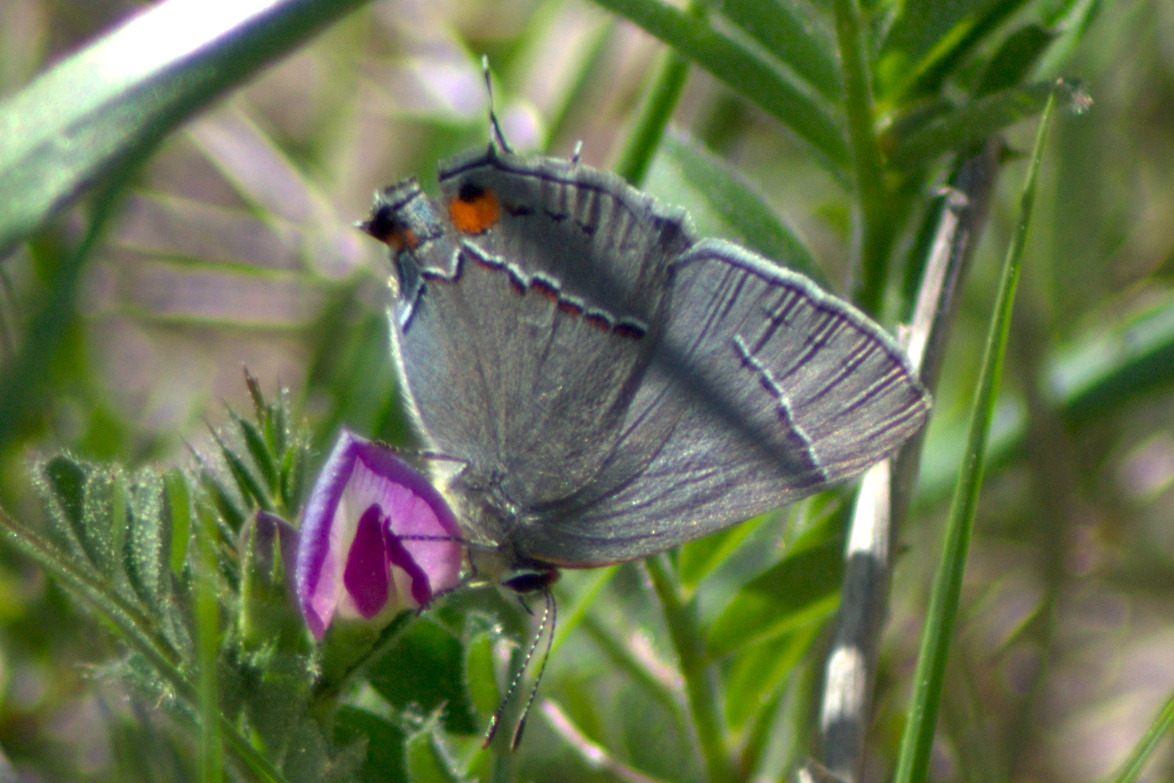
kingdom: Animalia
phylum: Arthropoda
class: Insecta
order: Lepidoptera
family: Lycaenidae
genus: Strymon
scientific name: Strymon melinus
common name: Gray hairstreak
